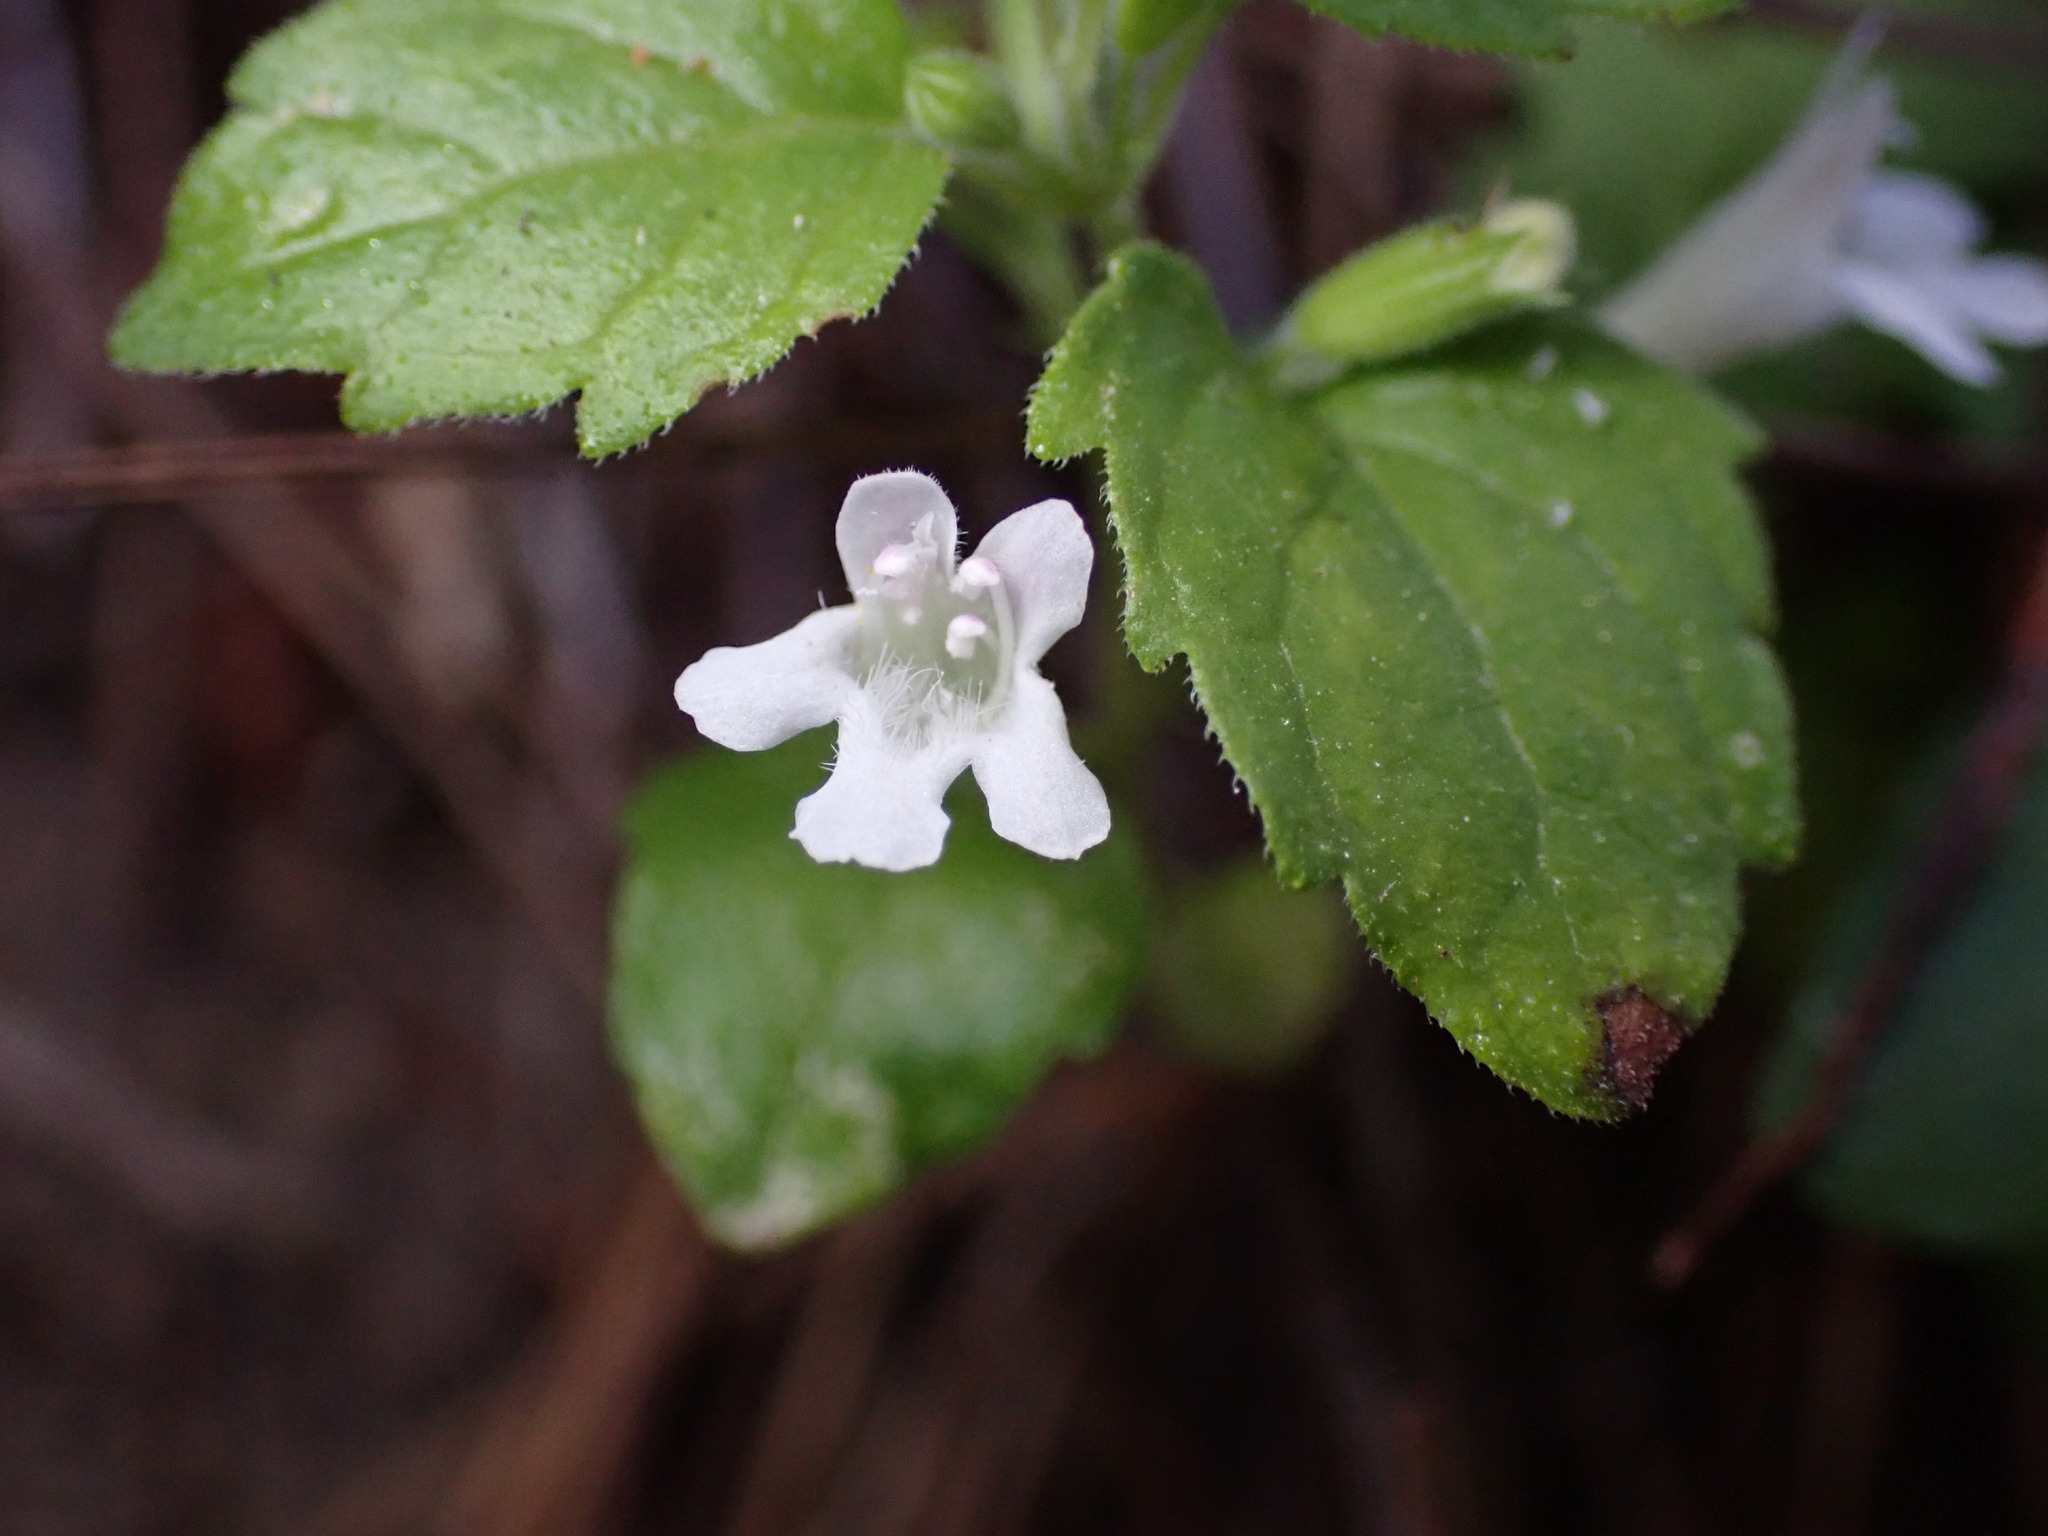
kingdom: Plantae
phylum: Tracheophyta
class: Magnoliopsida
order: Lamiales
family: Lamiaceae
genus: Micromeria
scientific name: Micromeria douglasii
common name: Yerba buena
